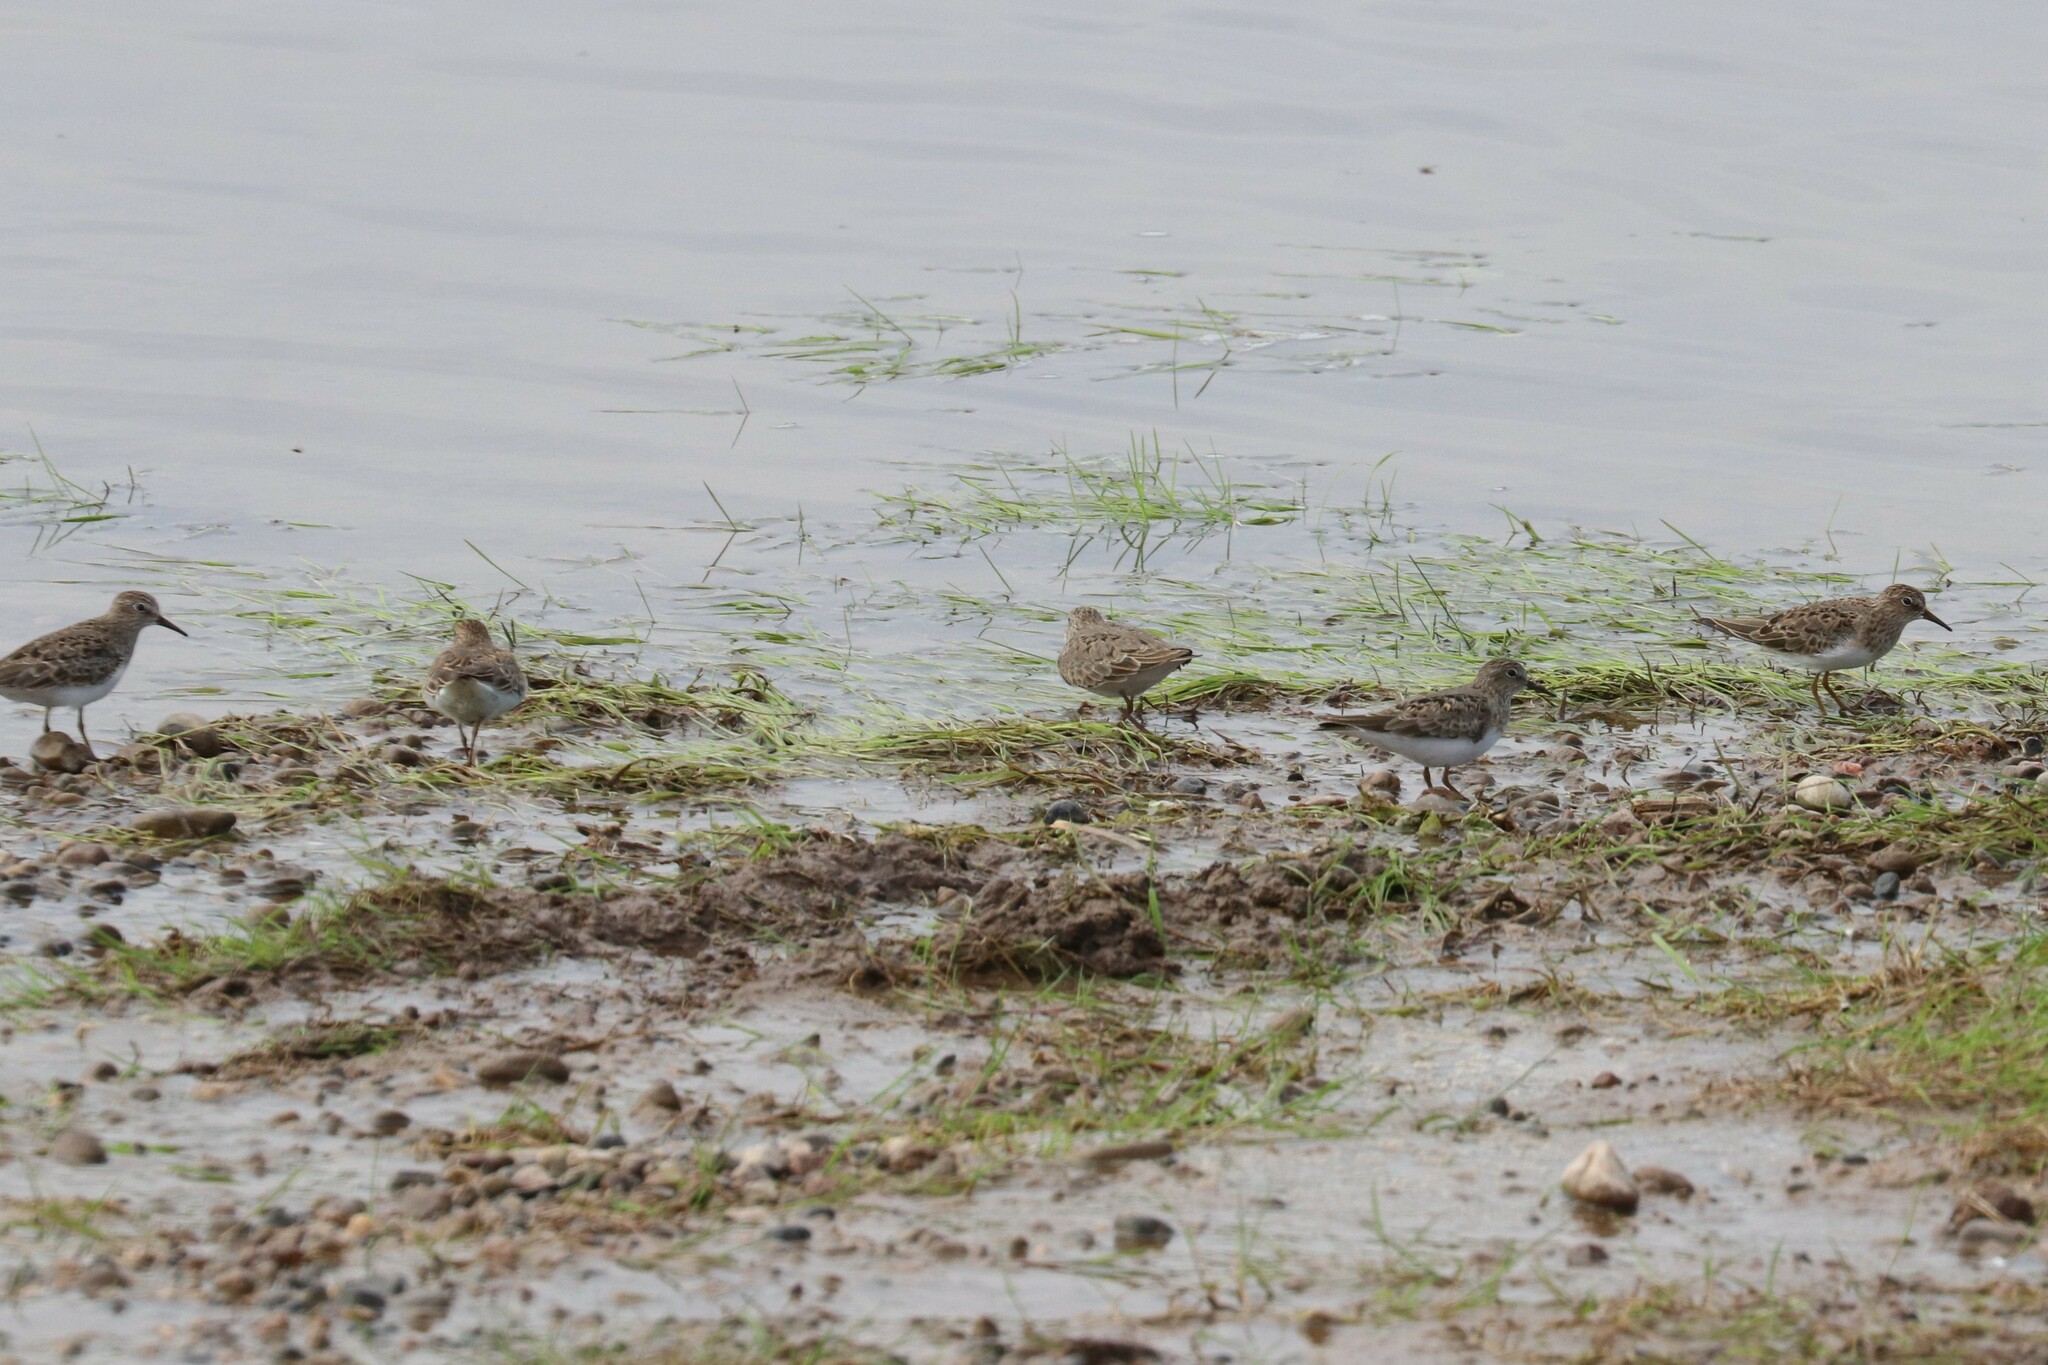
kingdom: Animalia
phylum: Chordata
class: Aves
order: Charadriiformes
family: Scolopacidae
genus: Calidris
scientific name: Calidris temminckii
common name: Temminck's stint
